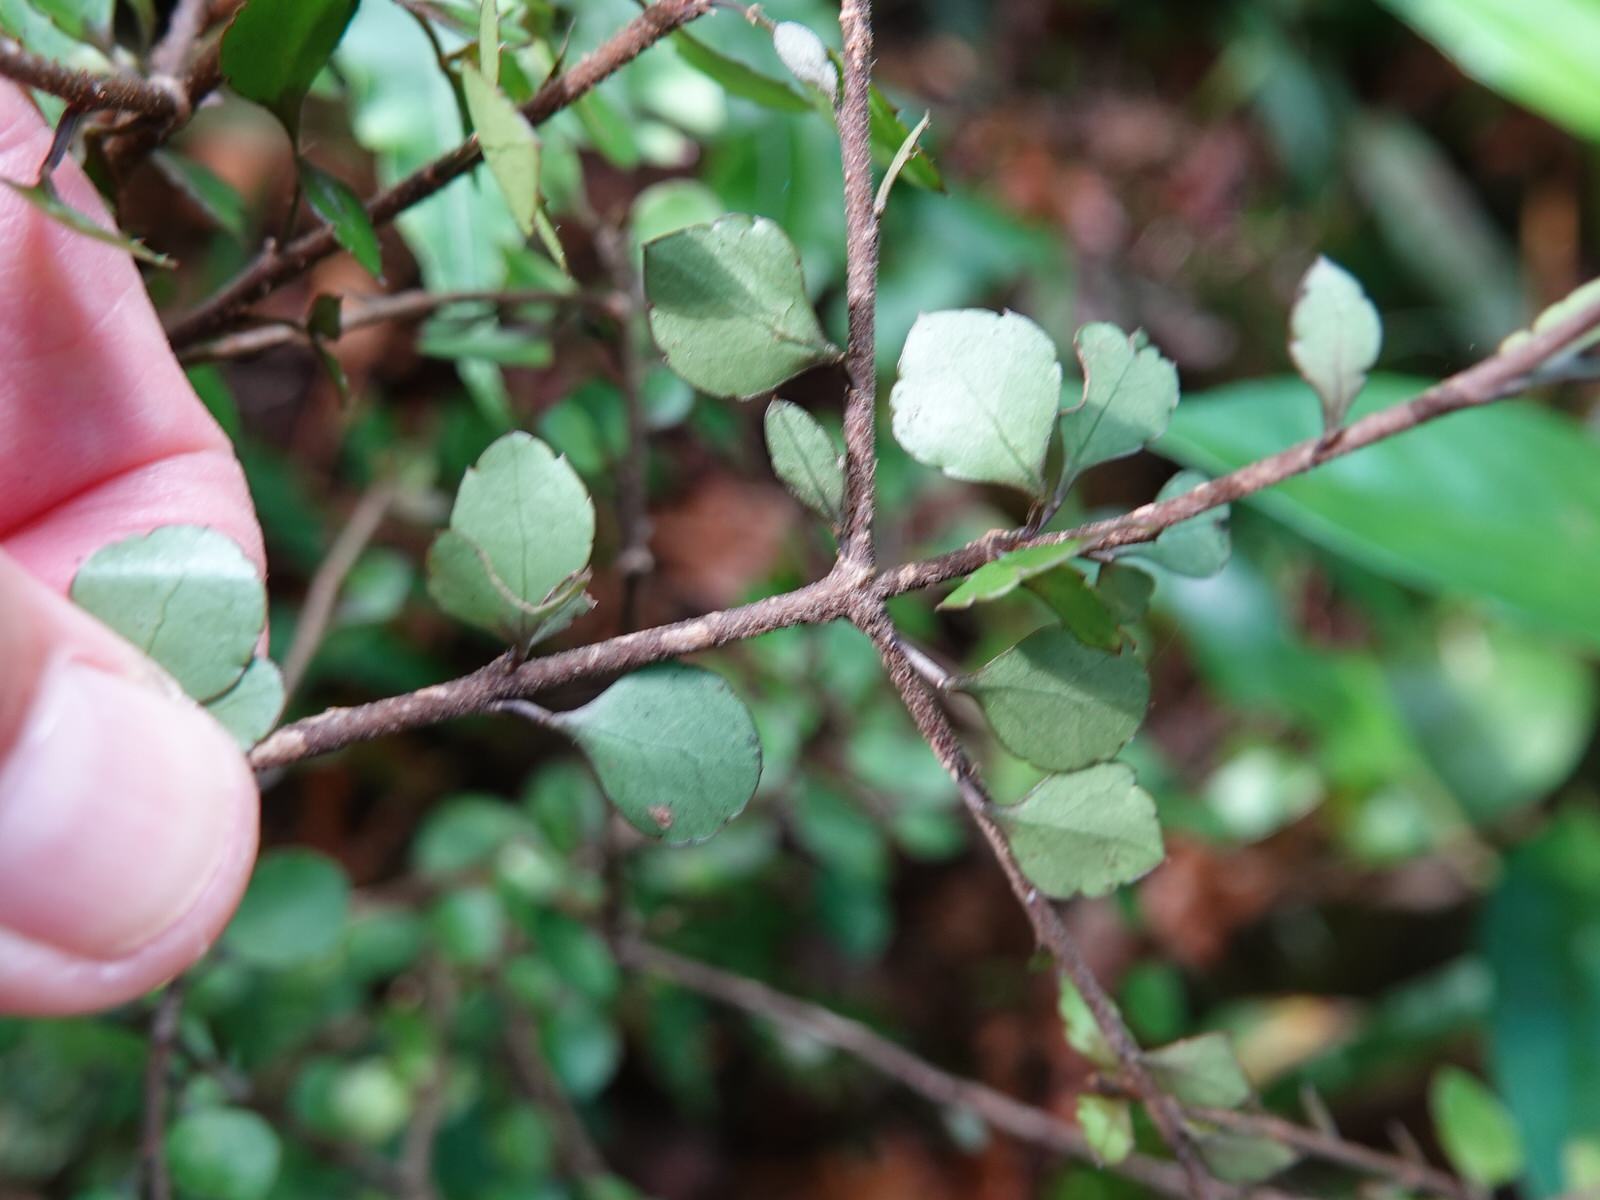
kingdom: Plantae
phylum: Tracheophyta
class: Magnoliopsida
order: Apiales
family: Araliaceae
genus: Raukaua
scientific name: Raukaua anomalus
